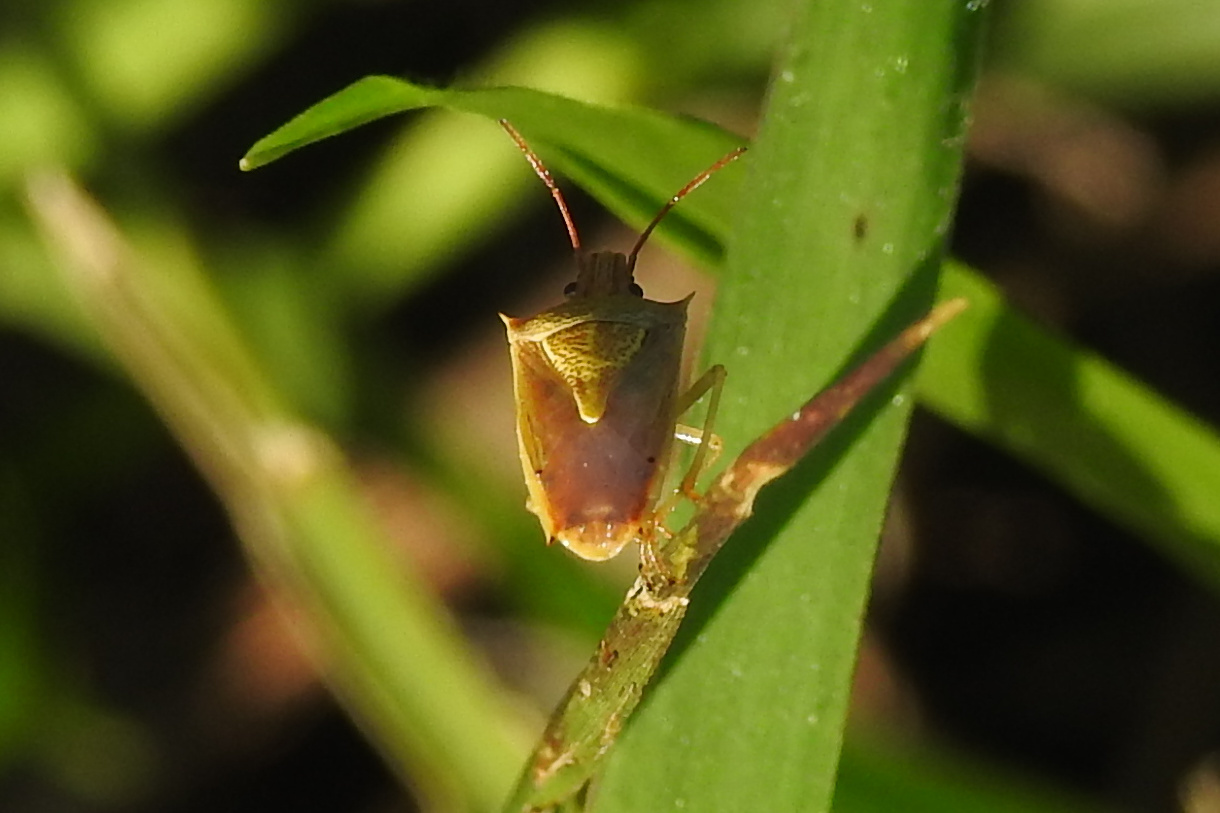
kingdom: Animalia
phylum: Arthropoda
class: Insecta
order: Hemiptera
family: Pentatomidae
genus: Oebalus
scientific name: Oebalus pugnax
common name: Rice stink bug
